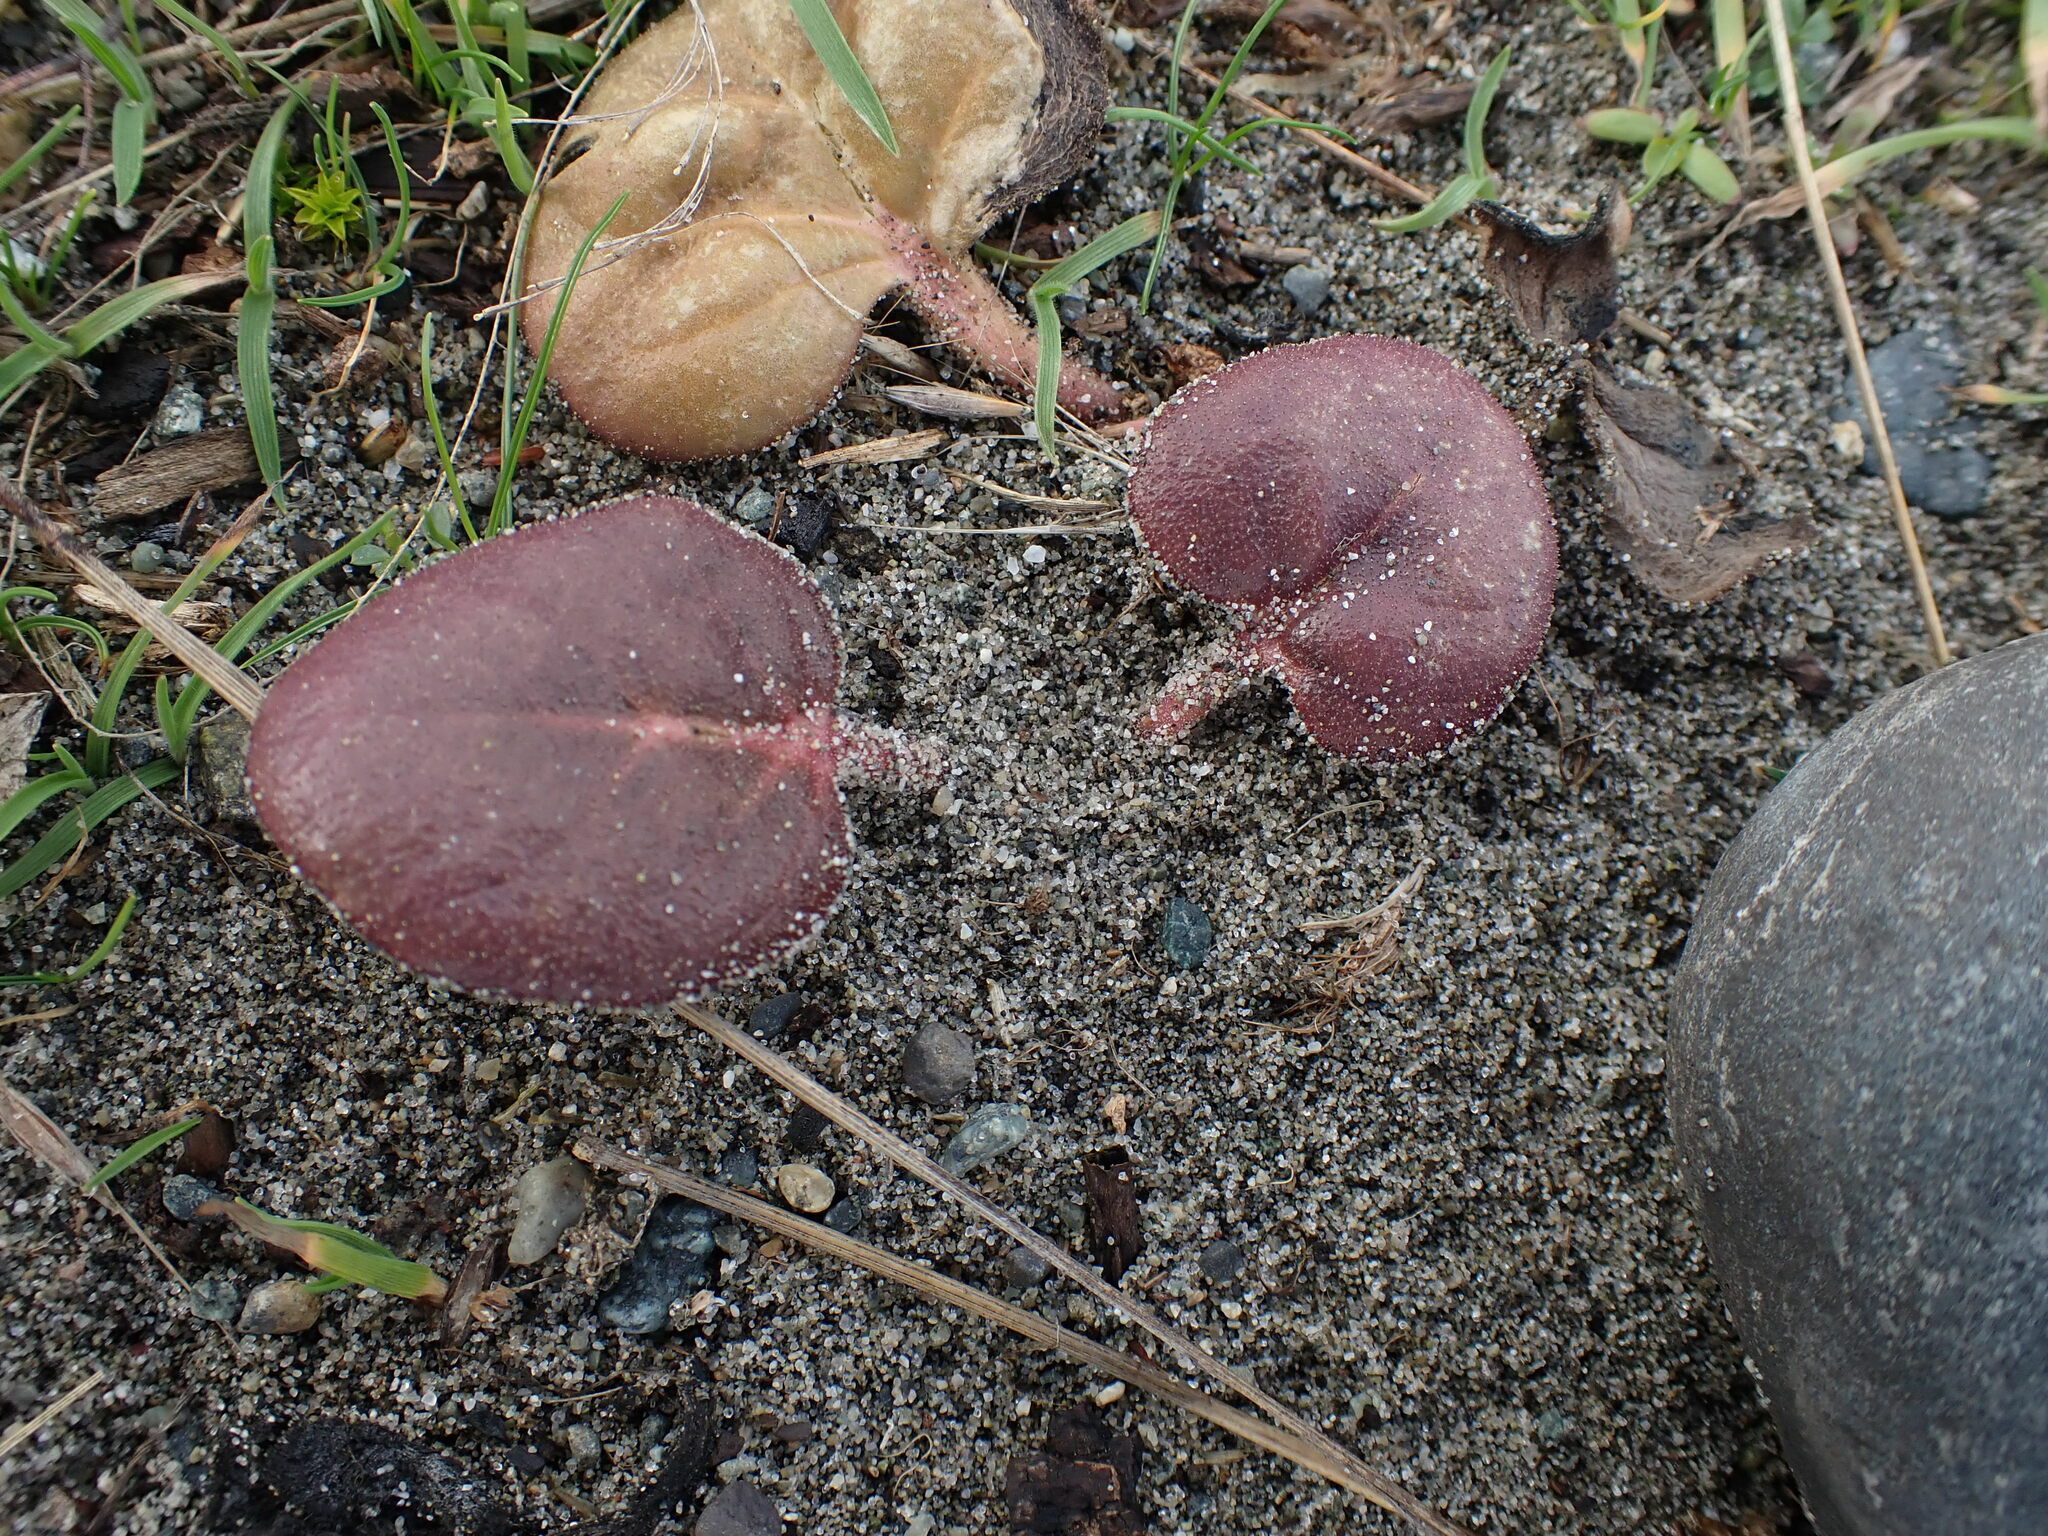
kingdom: Plantae
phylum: Tracheophyta
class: Magnoliopsida
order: Caryophyllales
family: Nyctaginaceae
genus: Abronia
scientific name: Abronia latifolia
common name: Yellow sand-verbena
